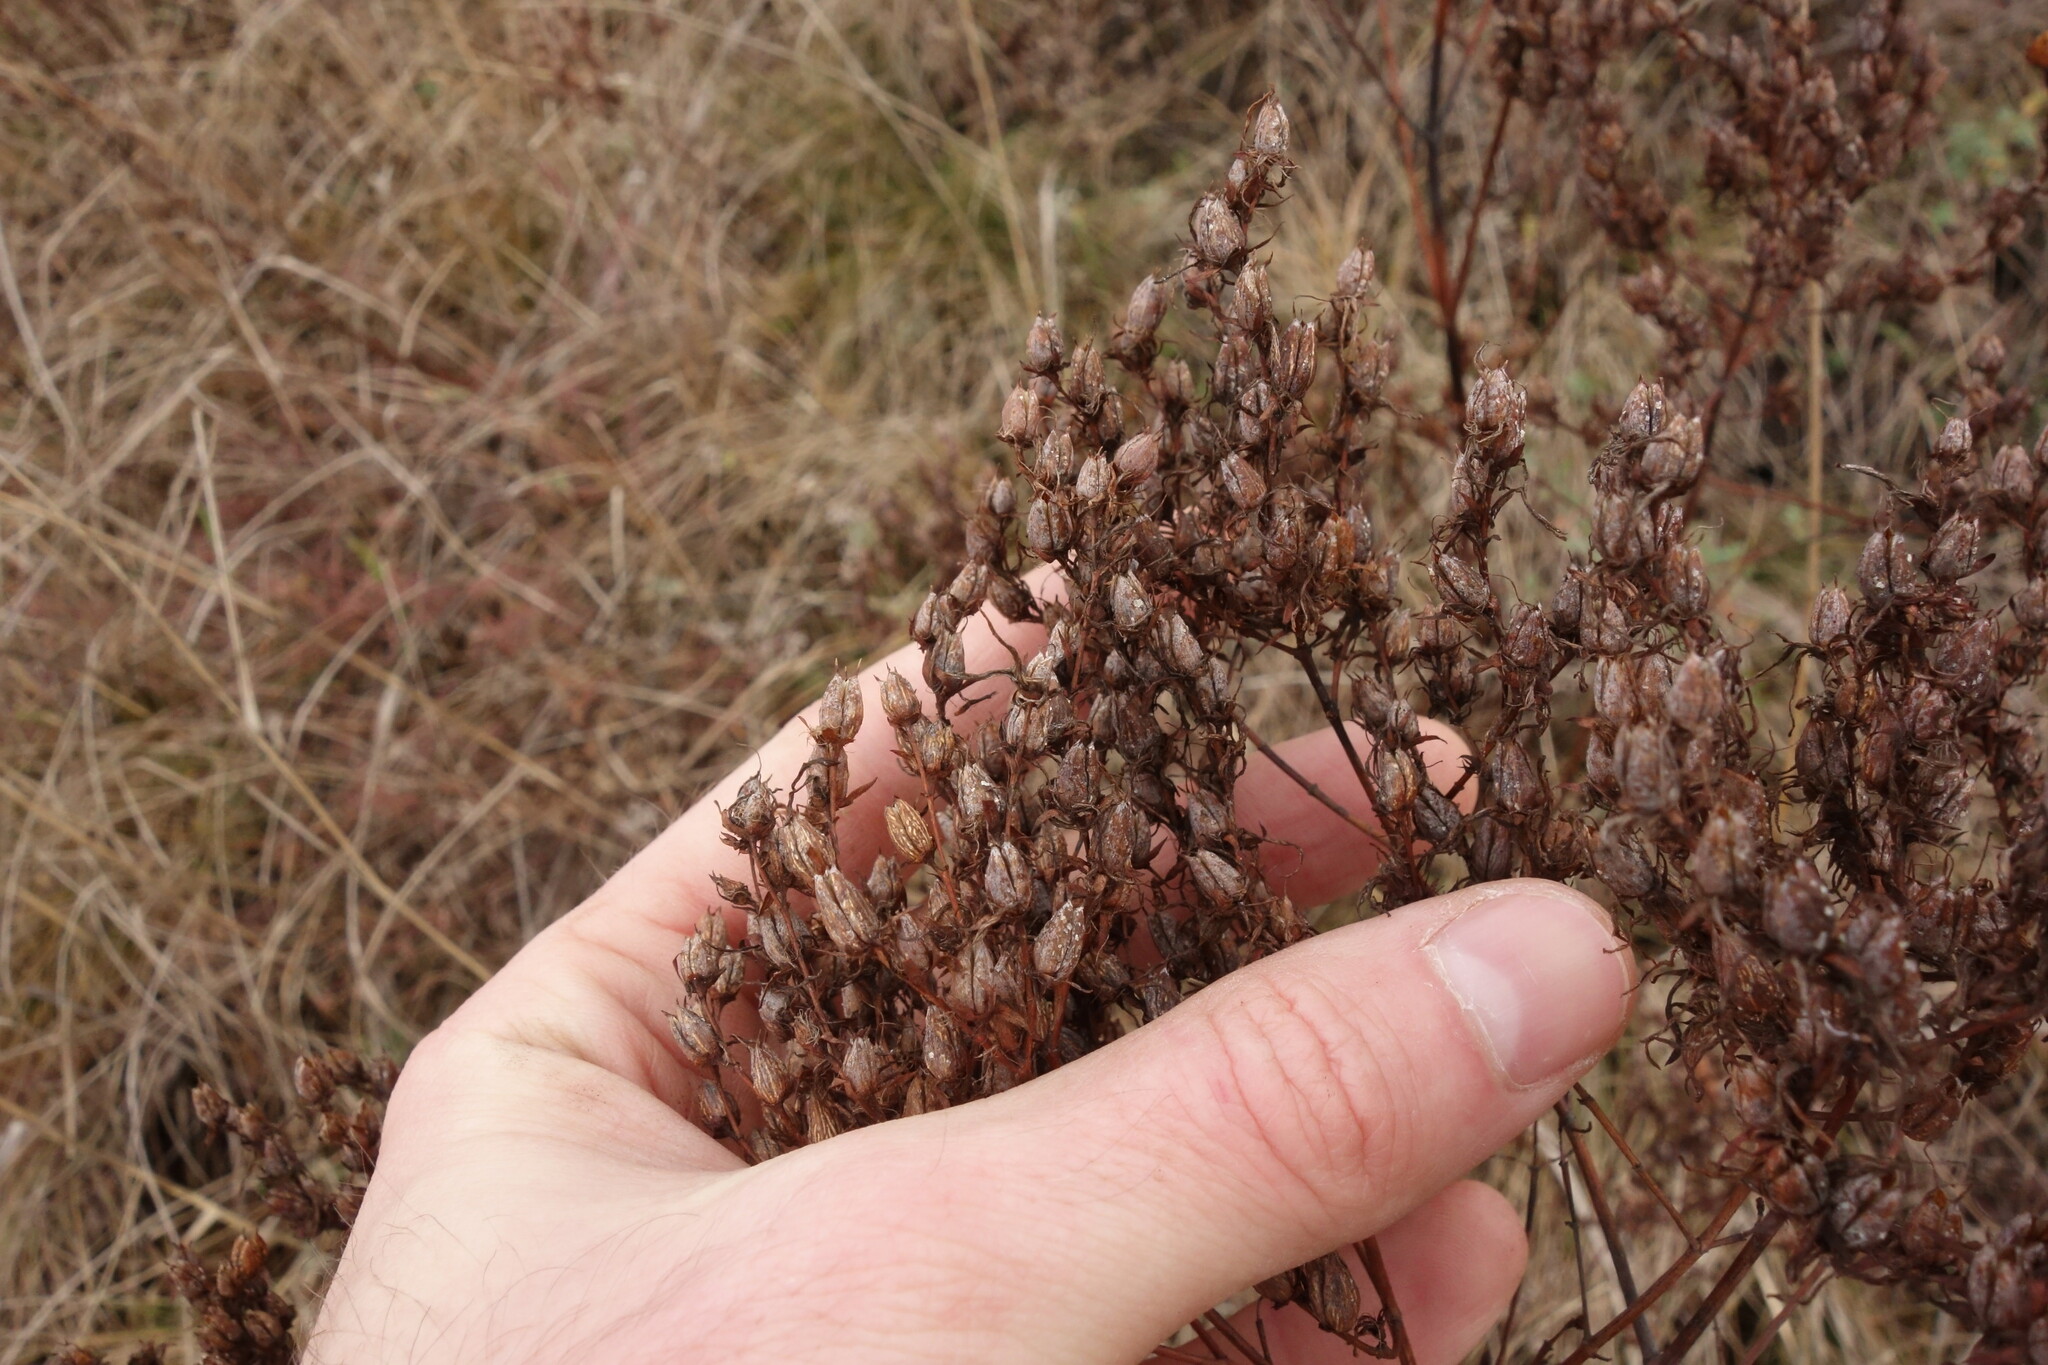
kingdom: Plantae
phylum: Tracheophyta
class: Magnoliopsida
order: Malpighiales
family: Hypericaceae
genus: Hypericum
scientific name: Hypericum perforatum
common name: Common st. johnswort
